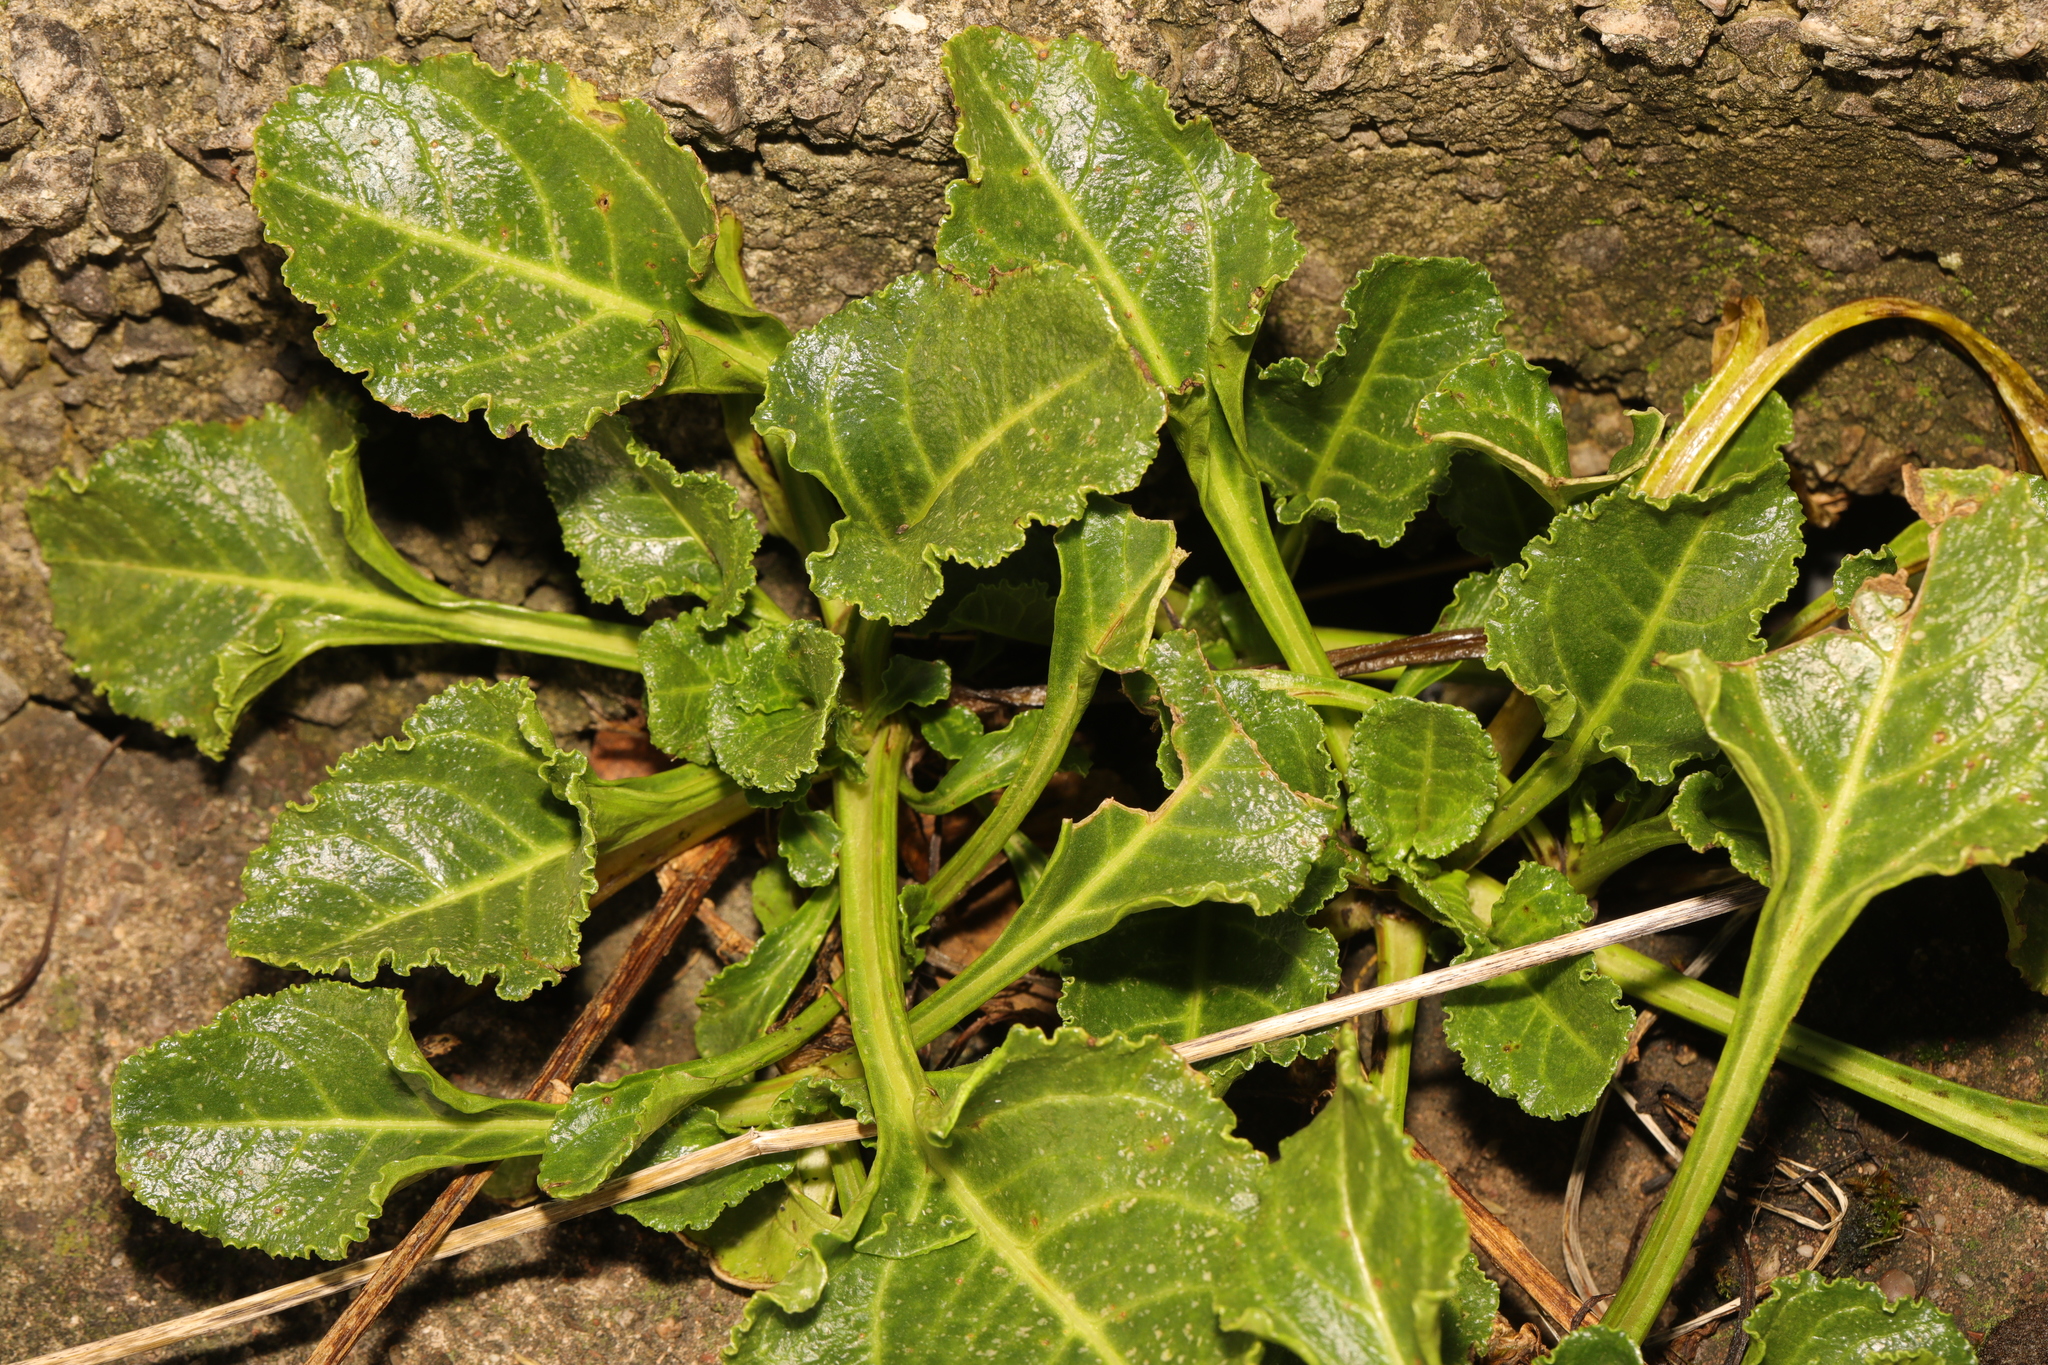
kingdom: Plantae
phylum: Tracheophyta
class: Magnoliopsida
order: Caryophyllales
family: Amaranthaceae
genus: Beta
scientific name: Beta vulgaris
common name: Beet
